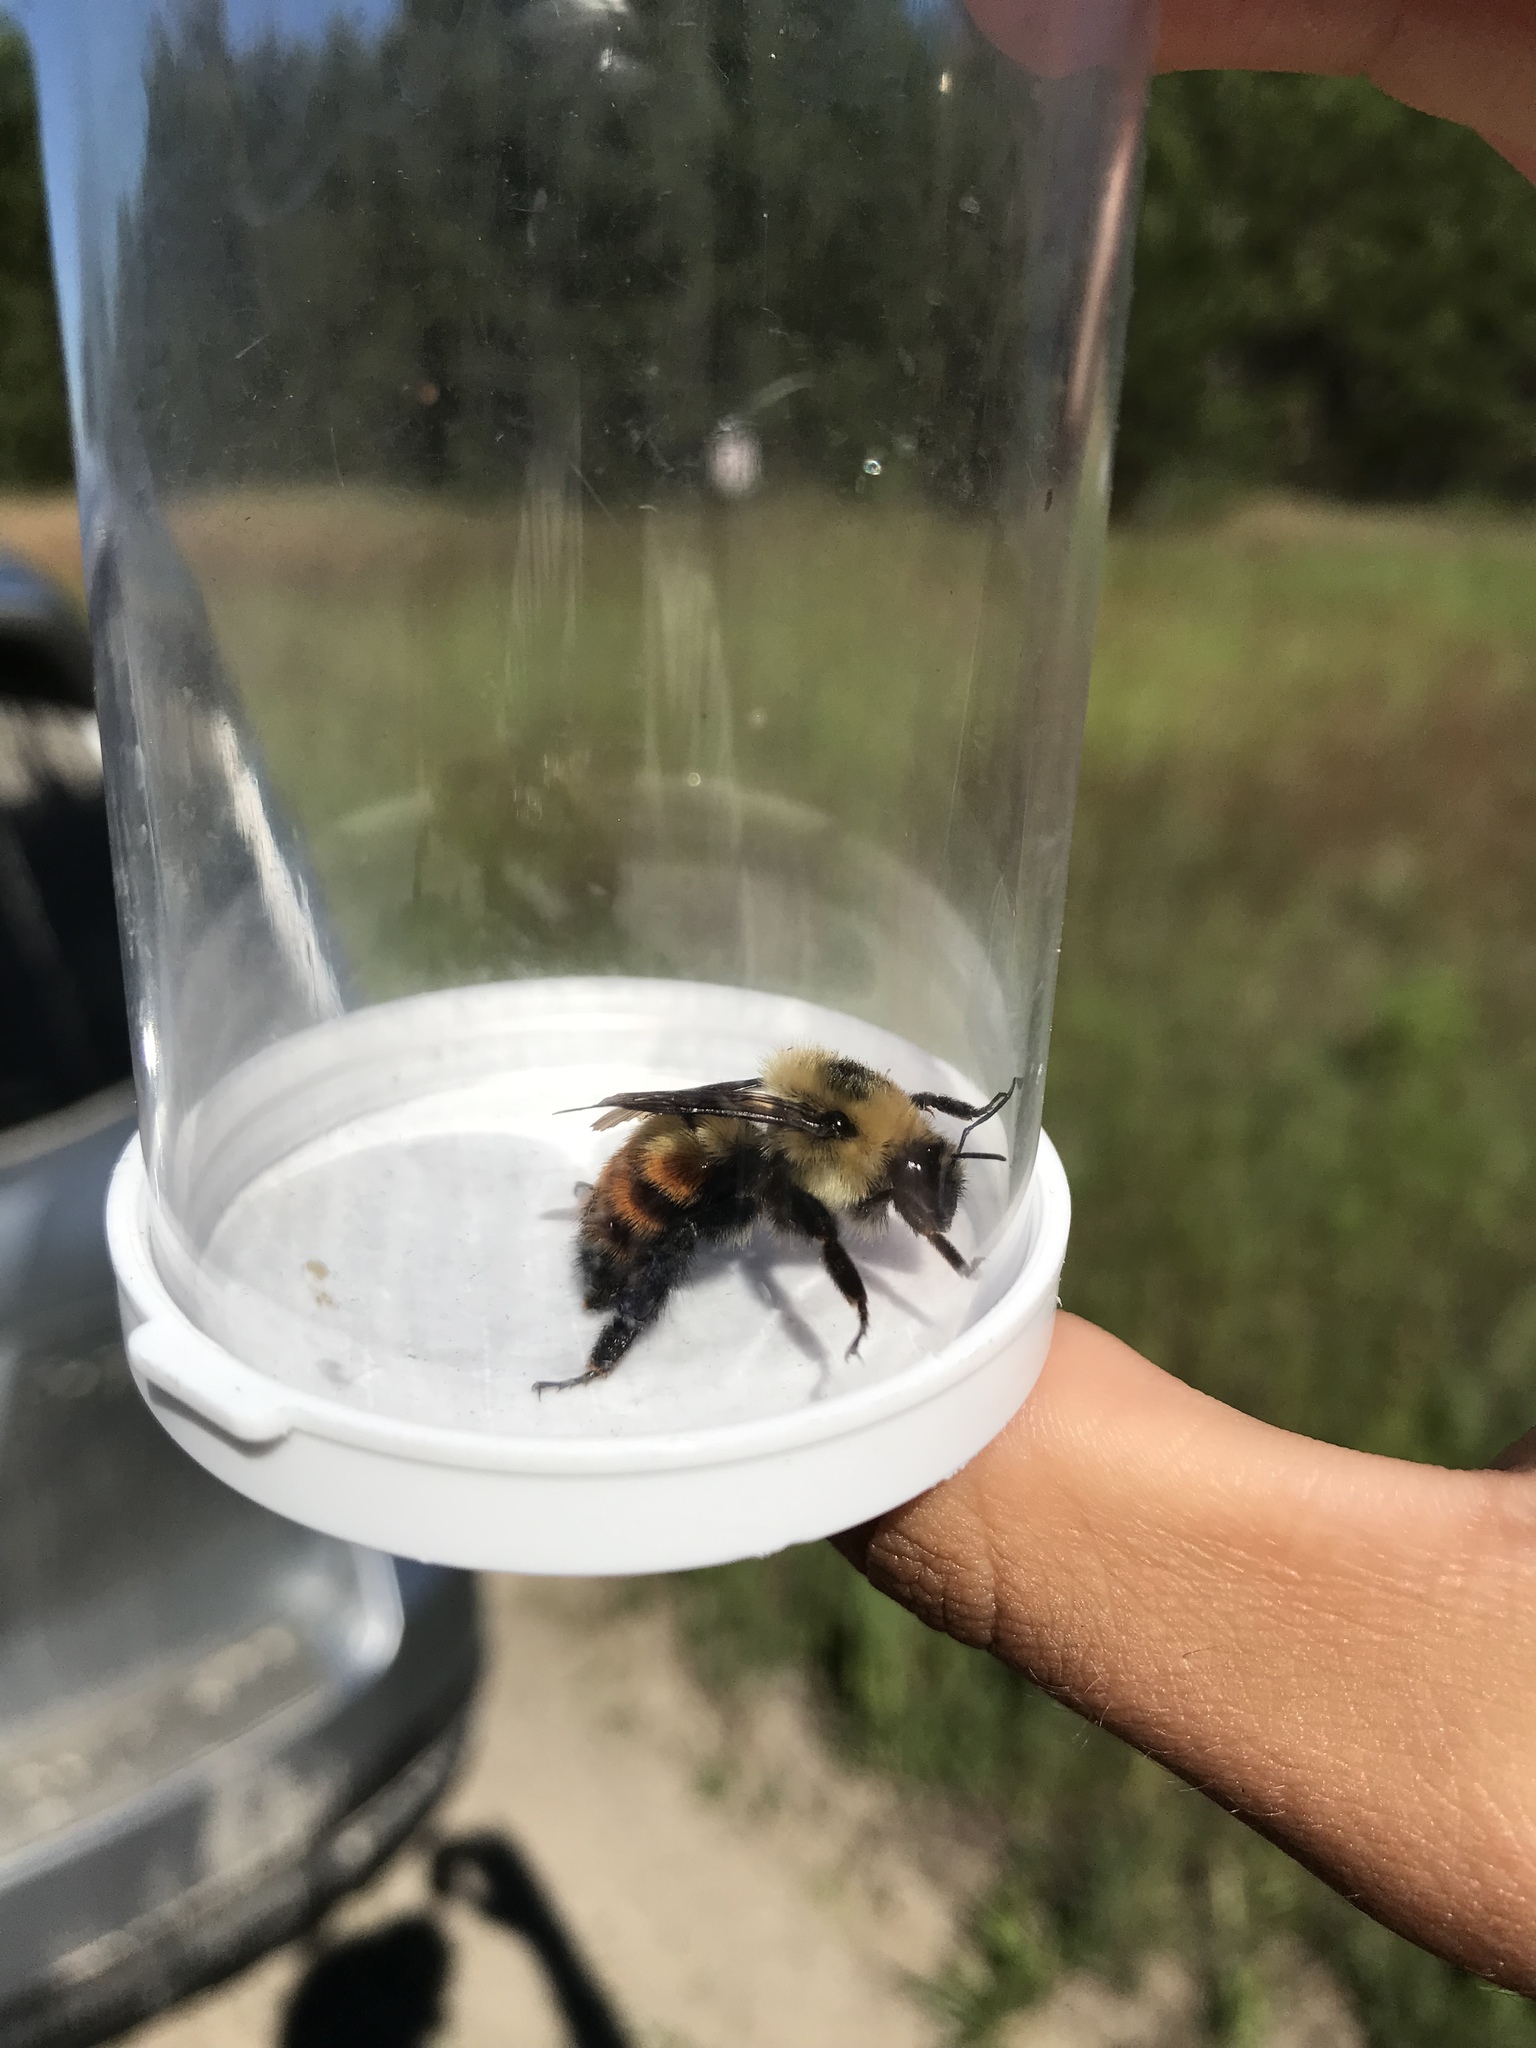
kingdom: Animalia
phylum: Arthropoda
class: Insecta
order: Hymenoptera
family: Apidae
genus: Bombus
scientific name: Bombus rufocinctus
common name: Red-belted bumble bee
